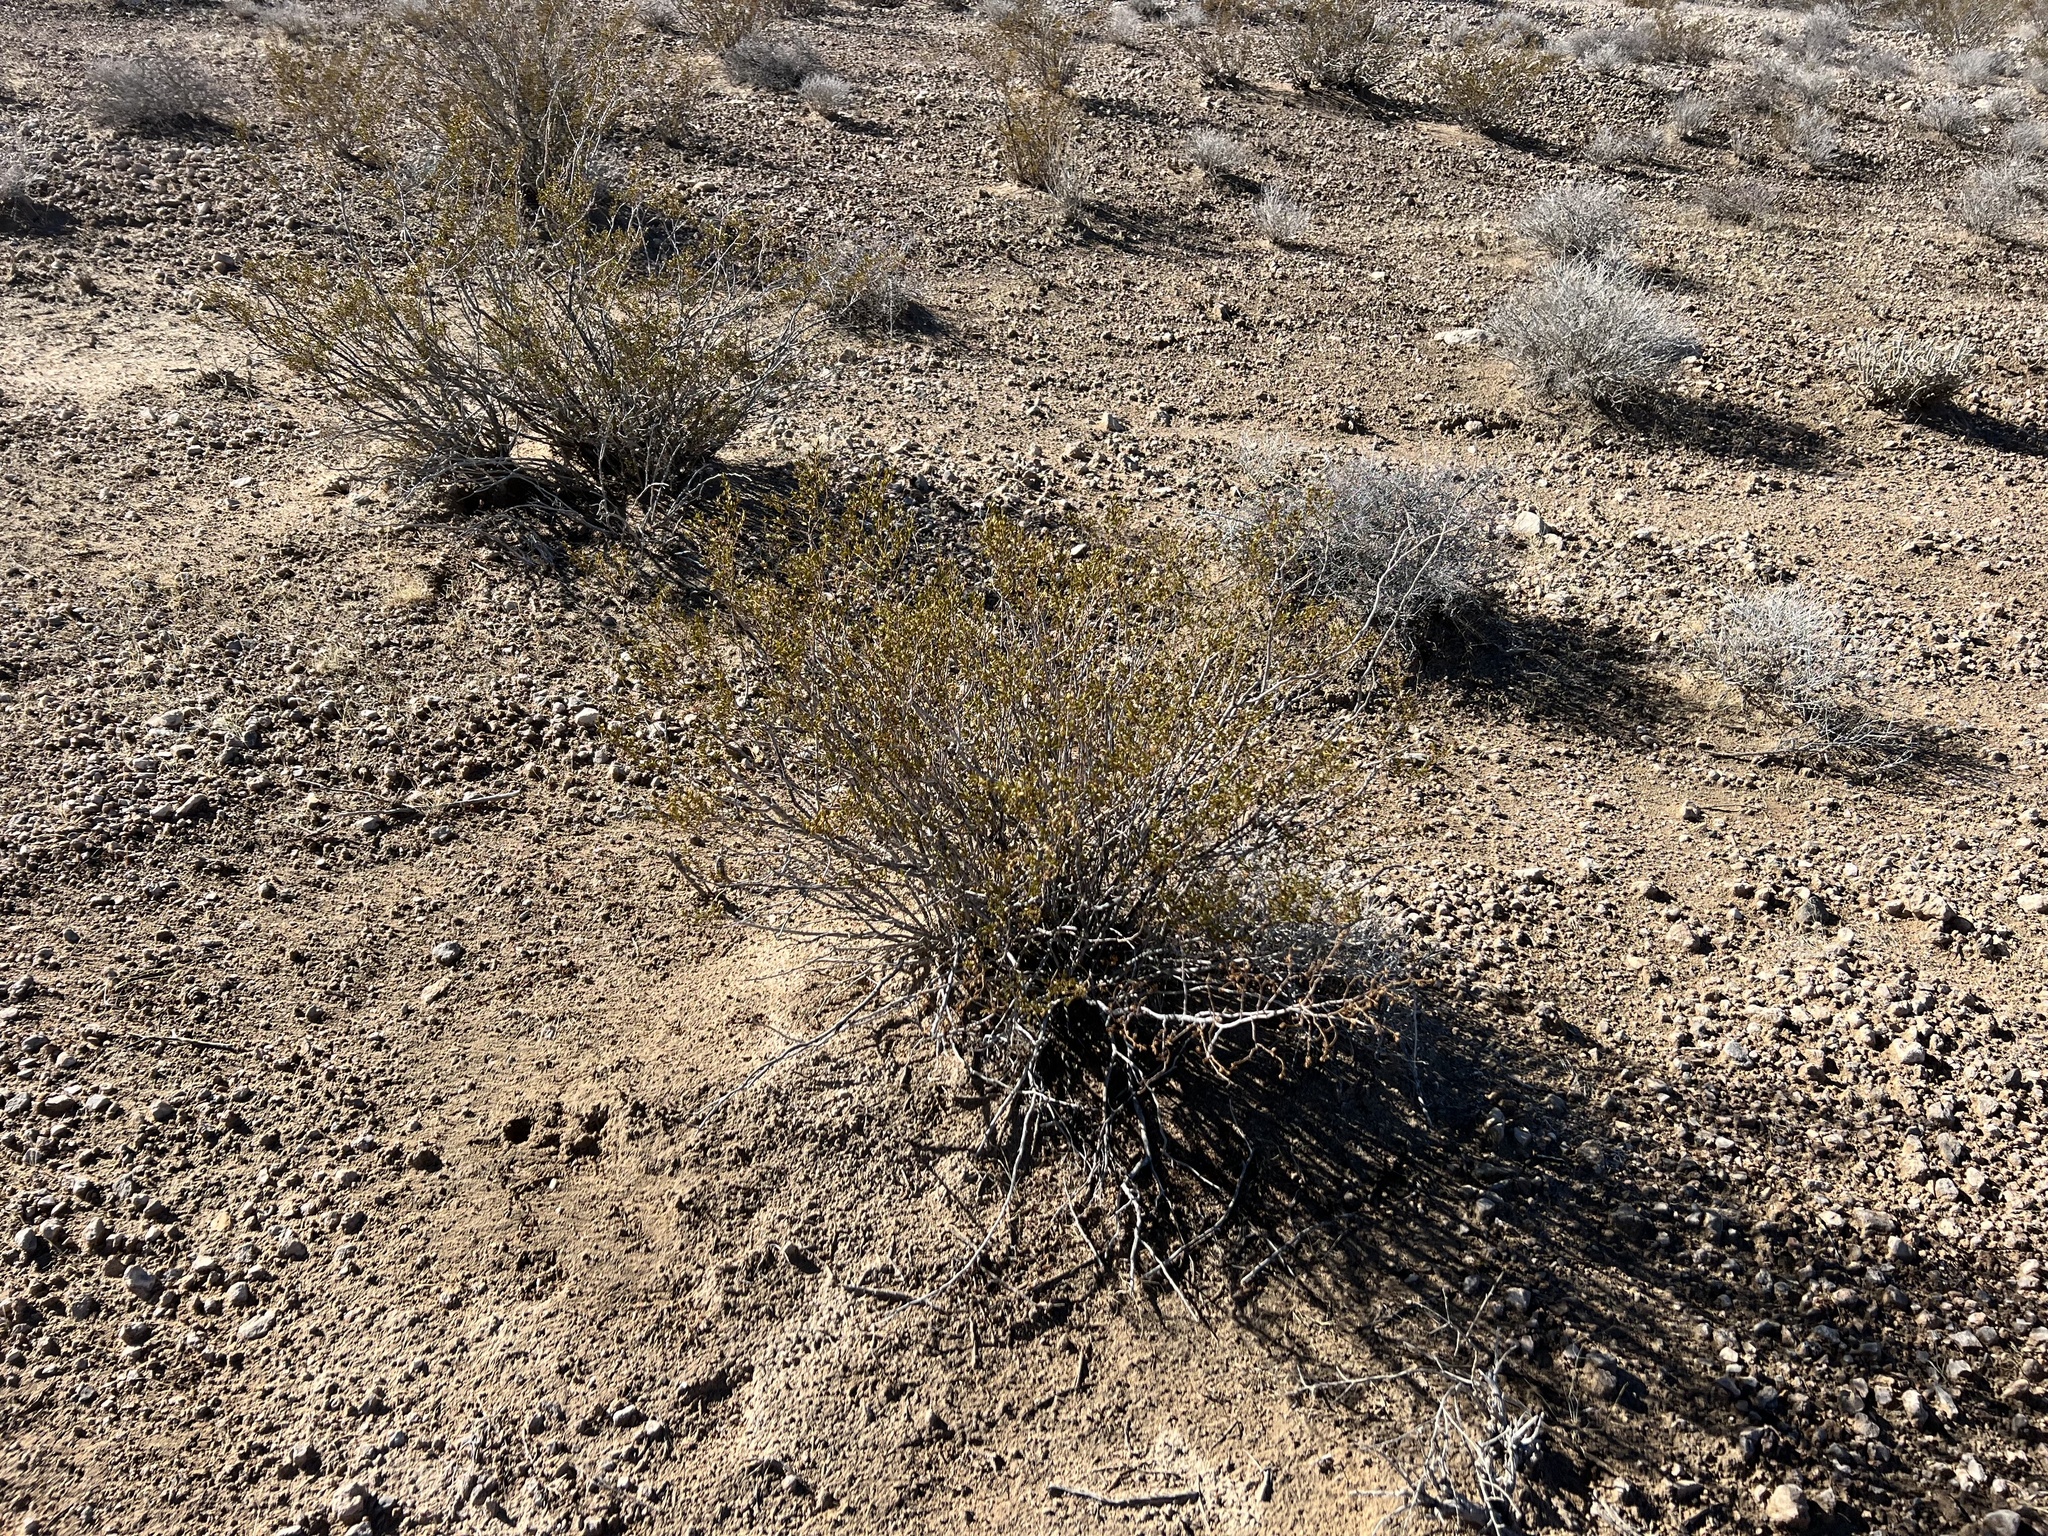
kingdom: Plantae
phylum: Tracheophyta
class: Magnoliopsida
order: Zygophyllales
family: Zygophyllaceae
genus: Larrea
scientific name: Larrea tridentata
